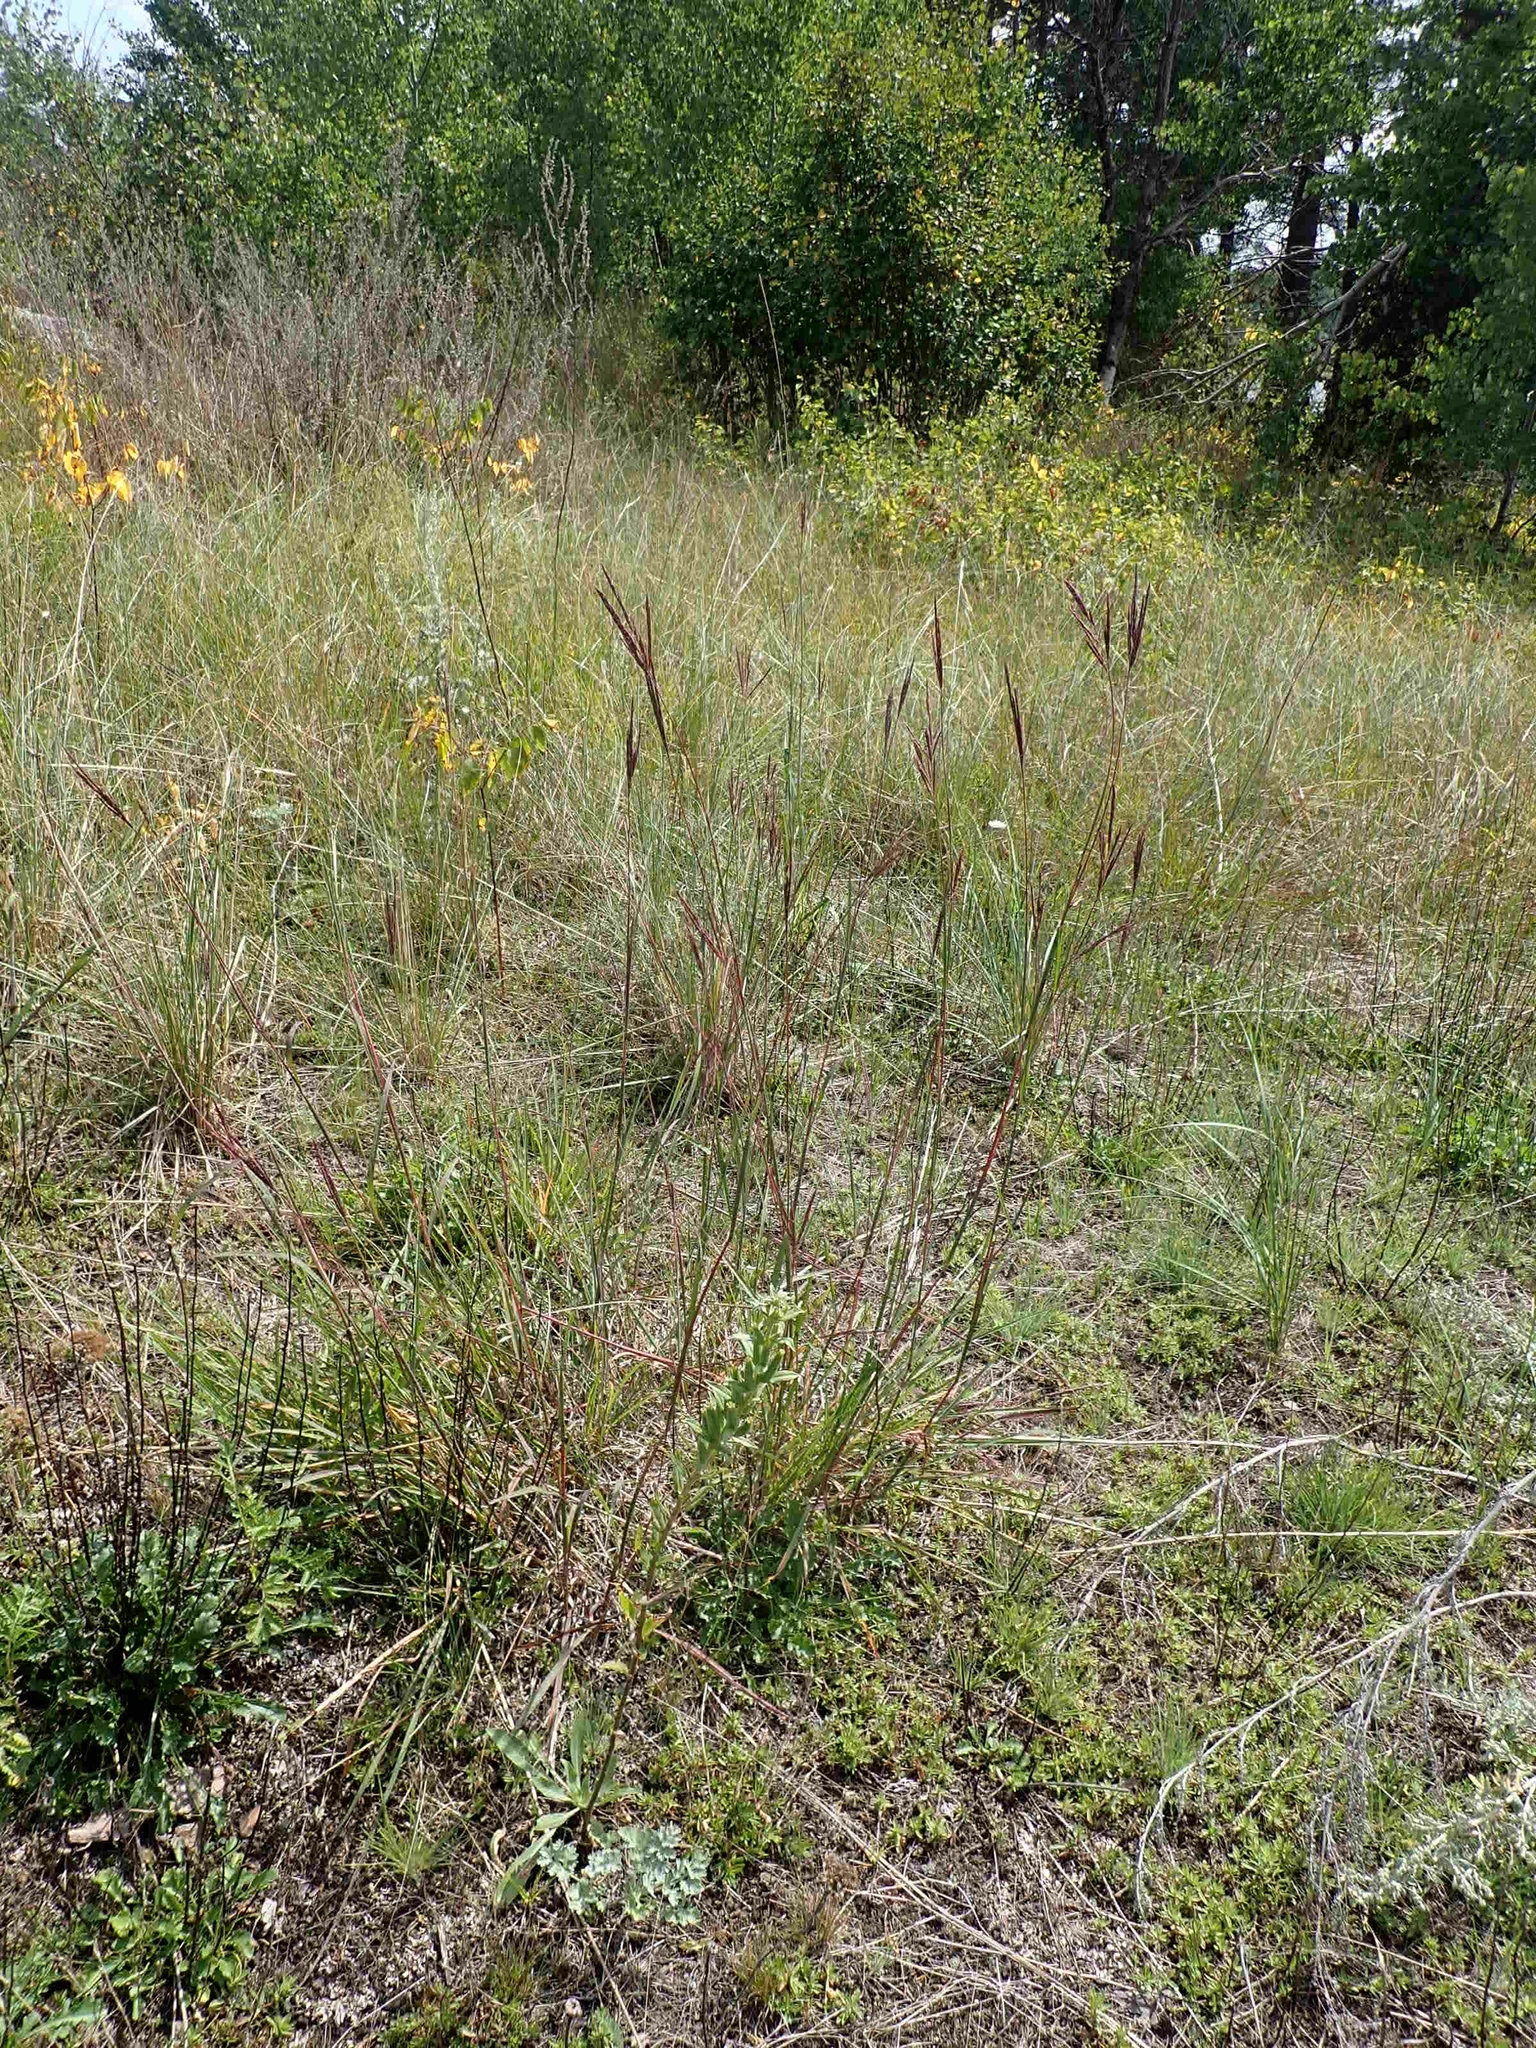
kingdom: Plantae
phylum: Tracheophyta
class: Liliopsida
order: Poales
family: Poaceae
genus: Andropogon
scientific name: Andropogon gerardi
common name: Big bluestem
